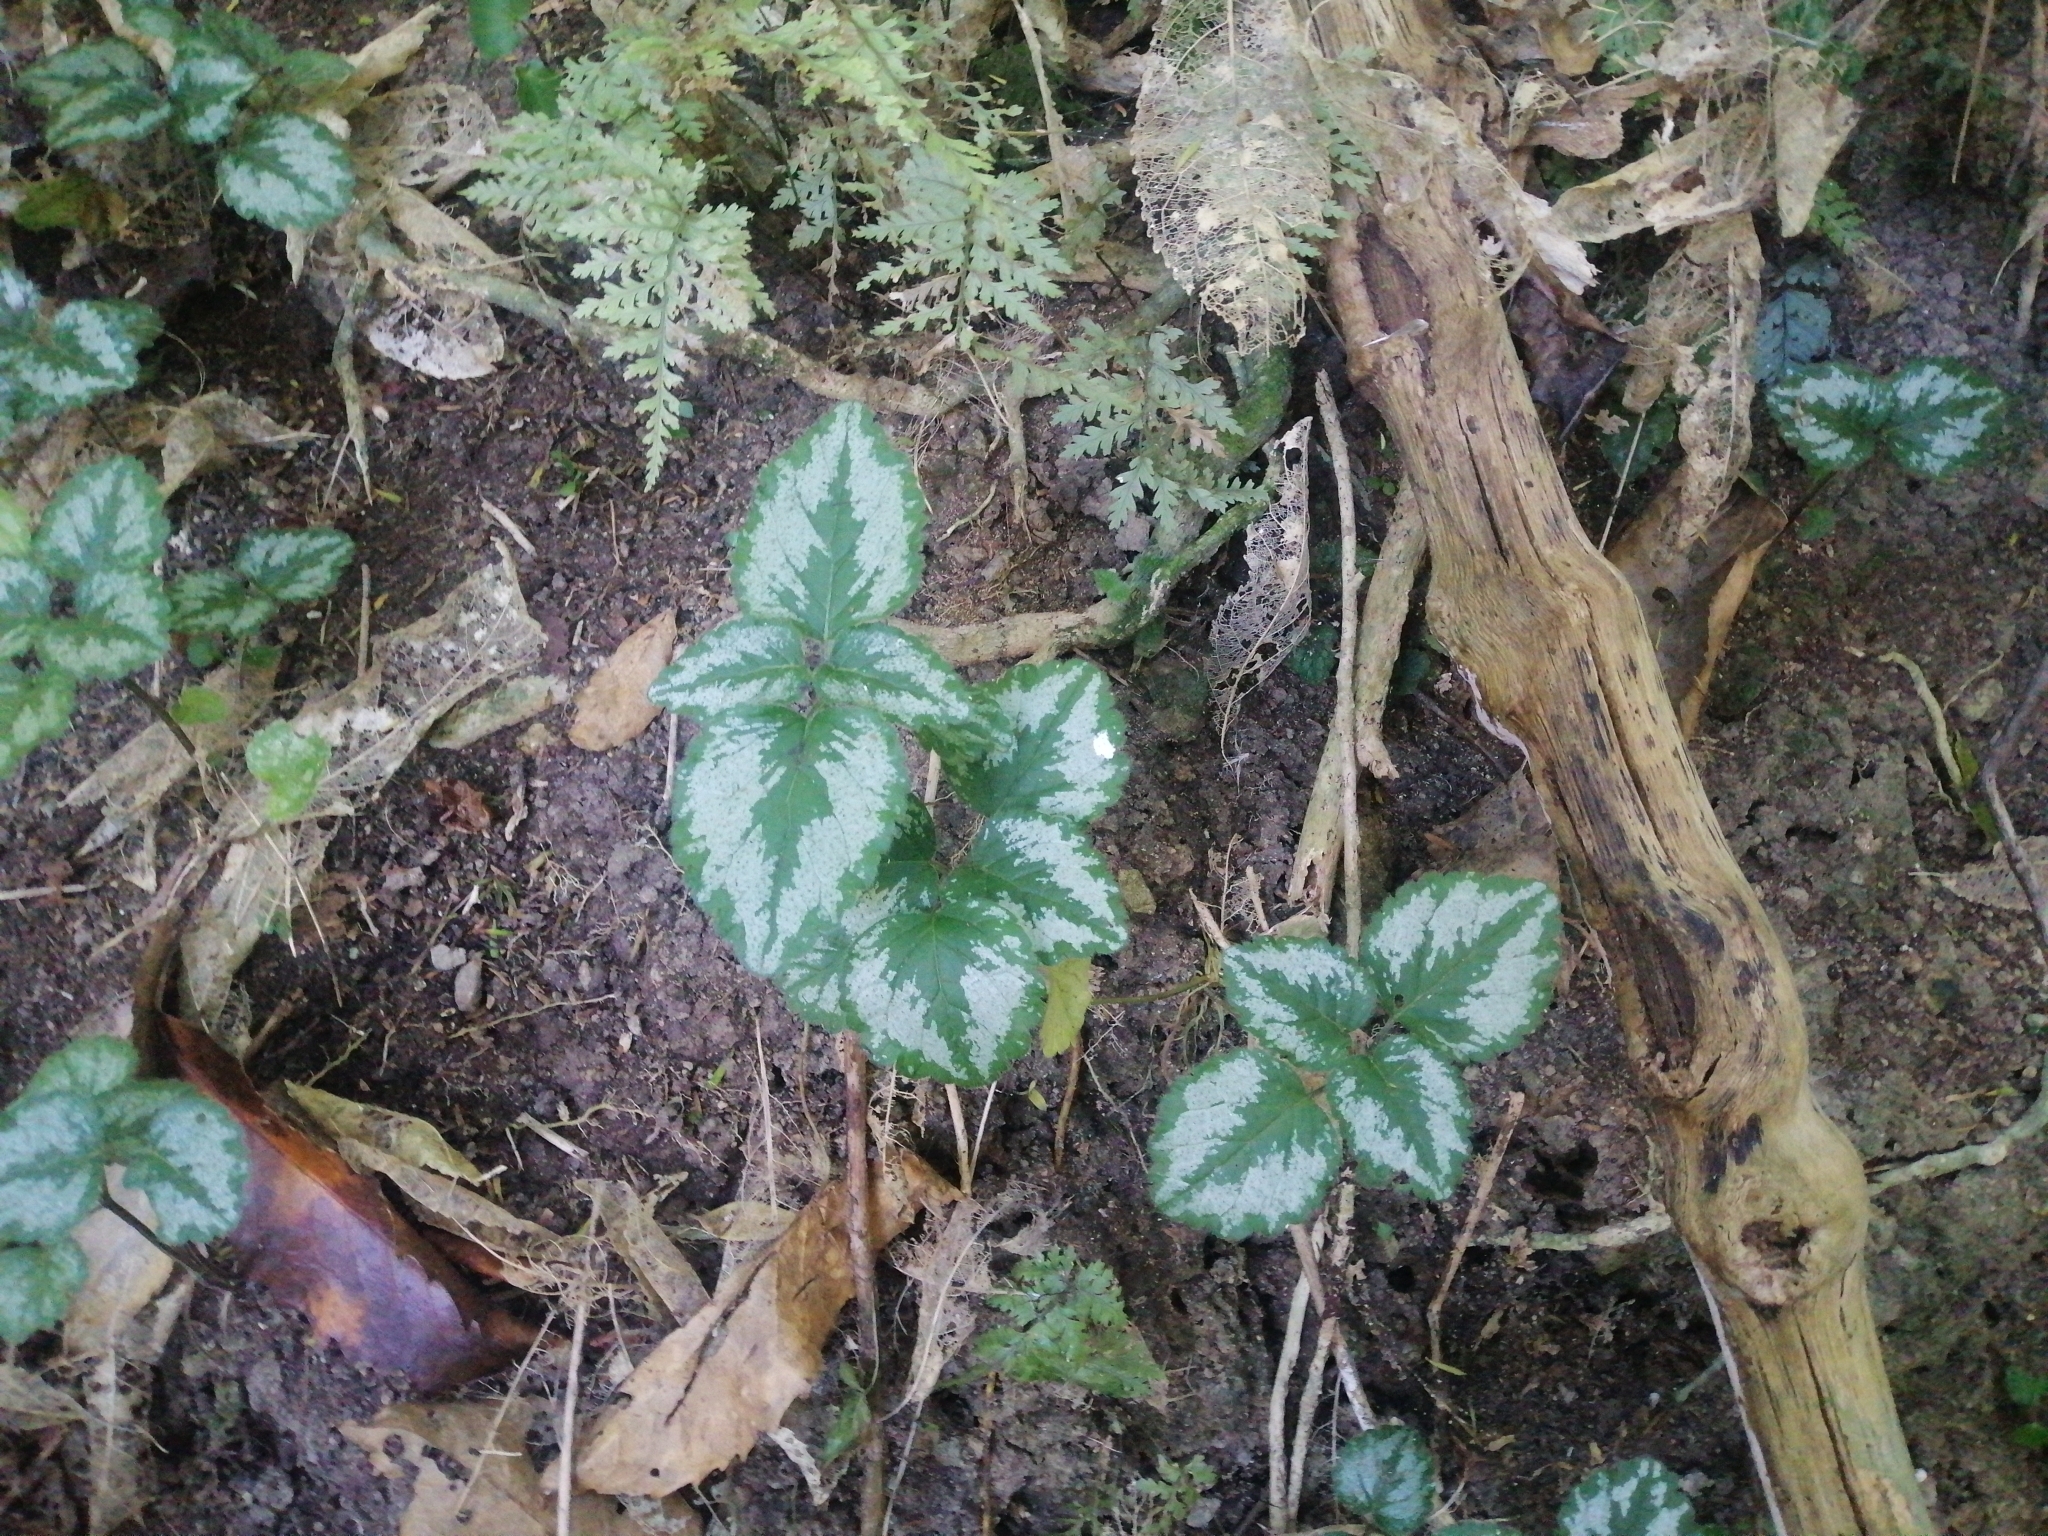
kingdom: Plantae
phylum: Tracheophyta
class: Magnoliopsida
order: Lamiales
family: Lamiaceae
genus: Lamium
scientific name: Lamium galeobdolon
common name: Yellow archangel
